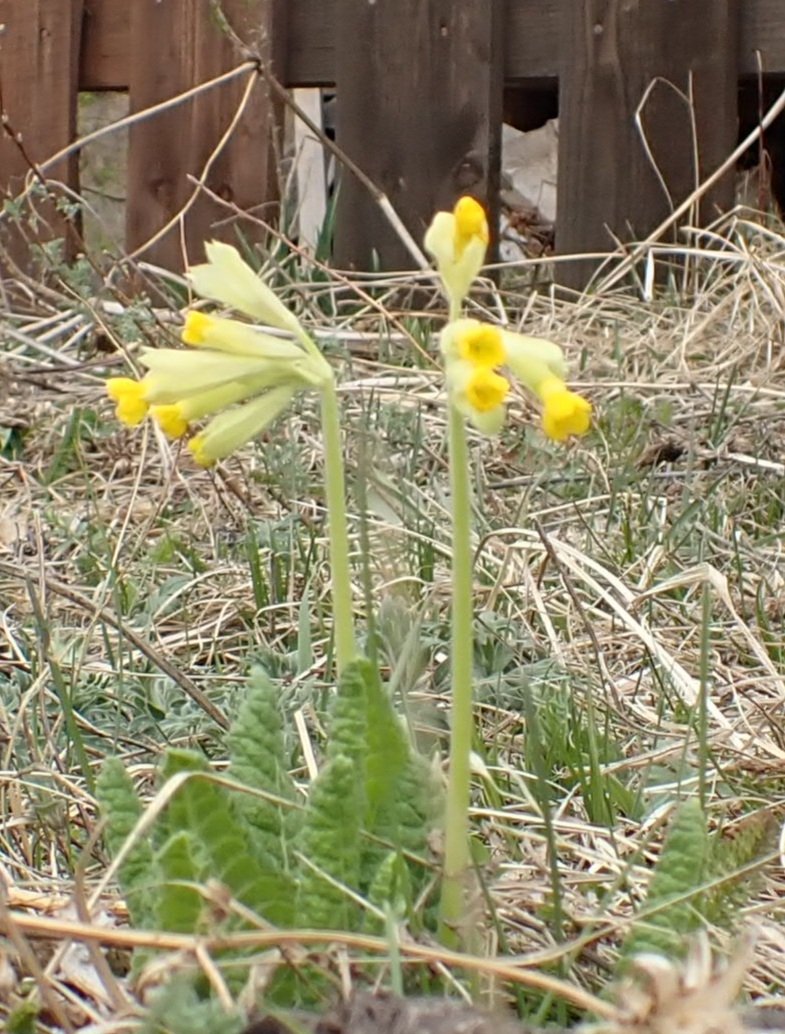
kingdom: Plantae
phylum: Tracheophyta
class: Magnoliopsida
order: Ericales
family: Primulaceae
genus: Primula
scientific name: Primula veris
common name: Cowslip
